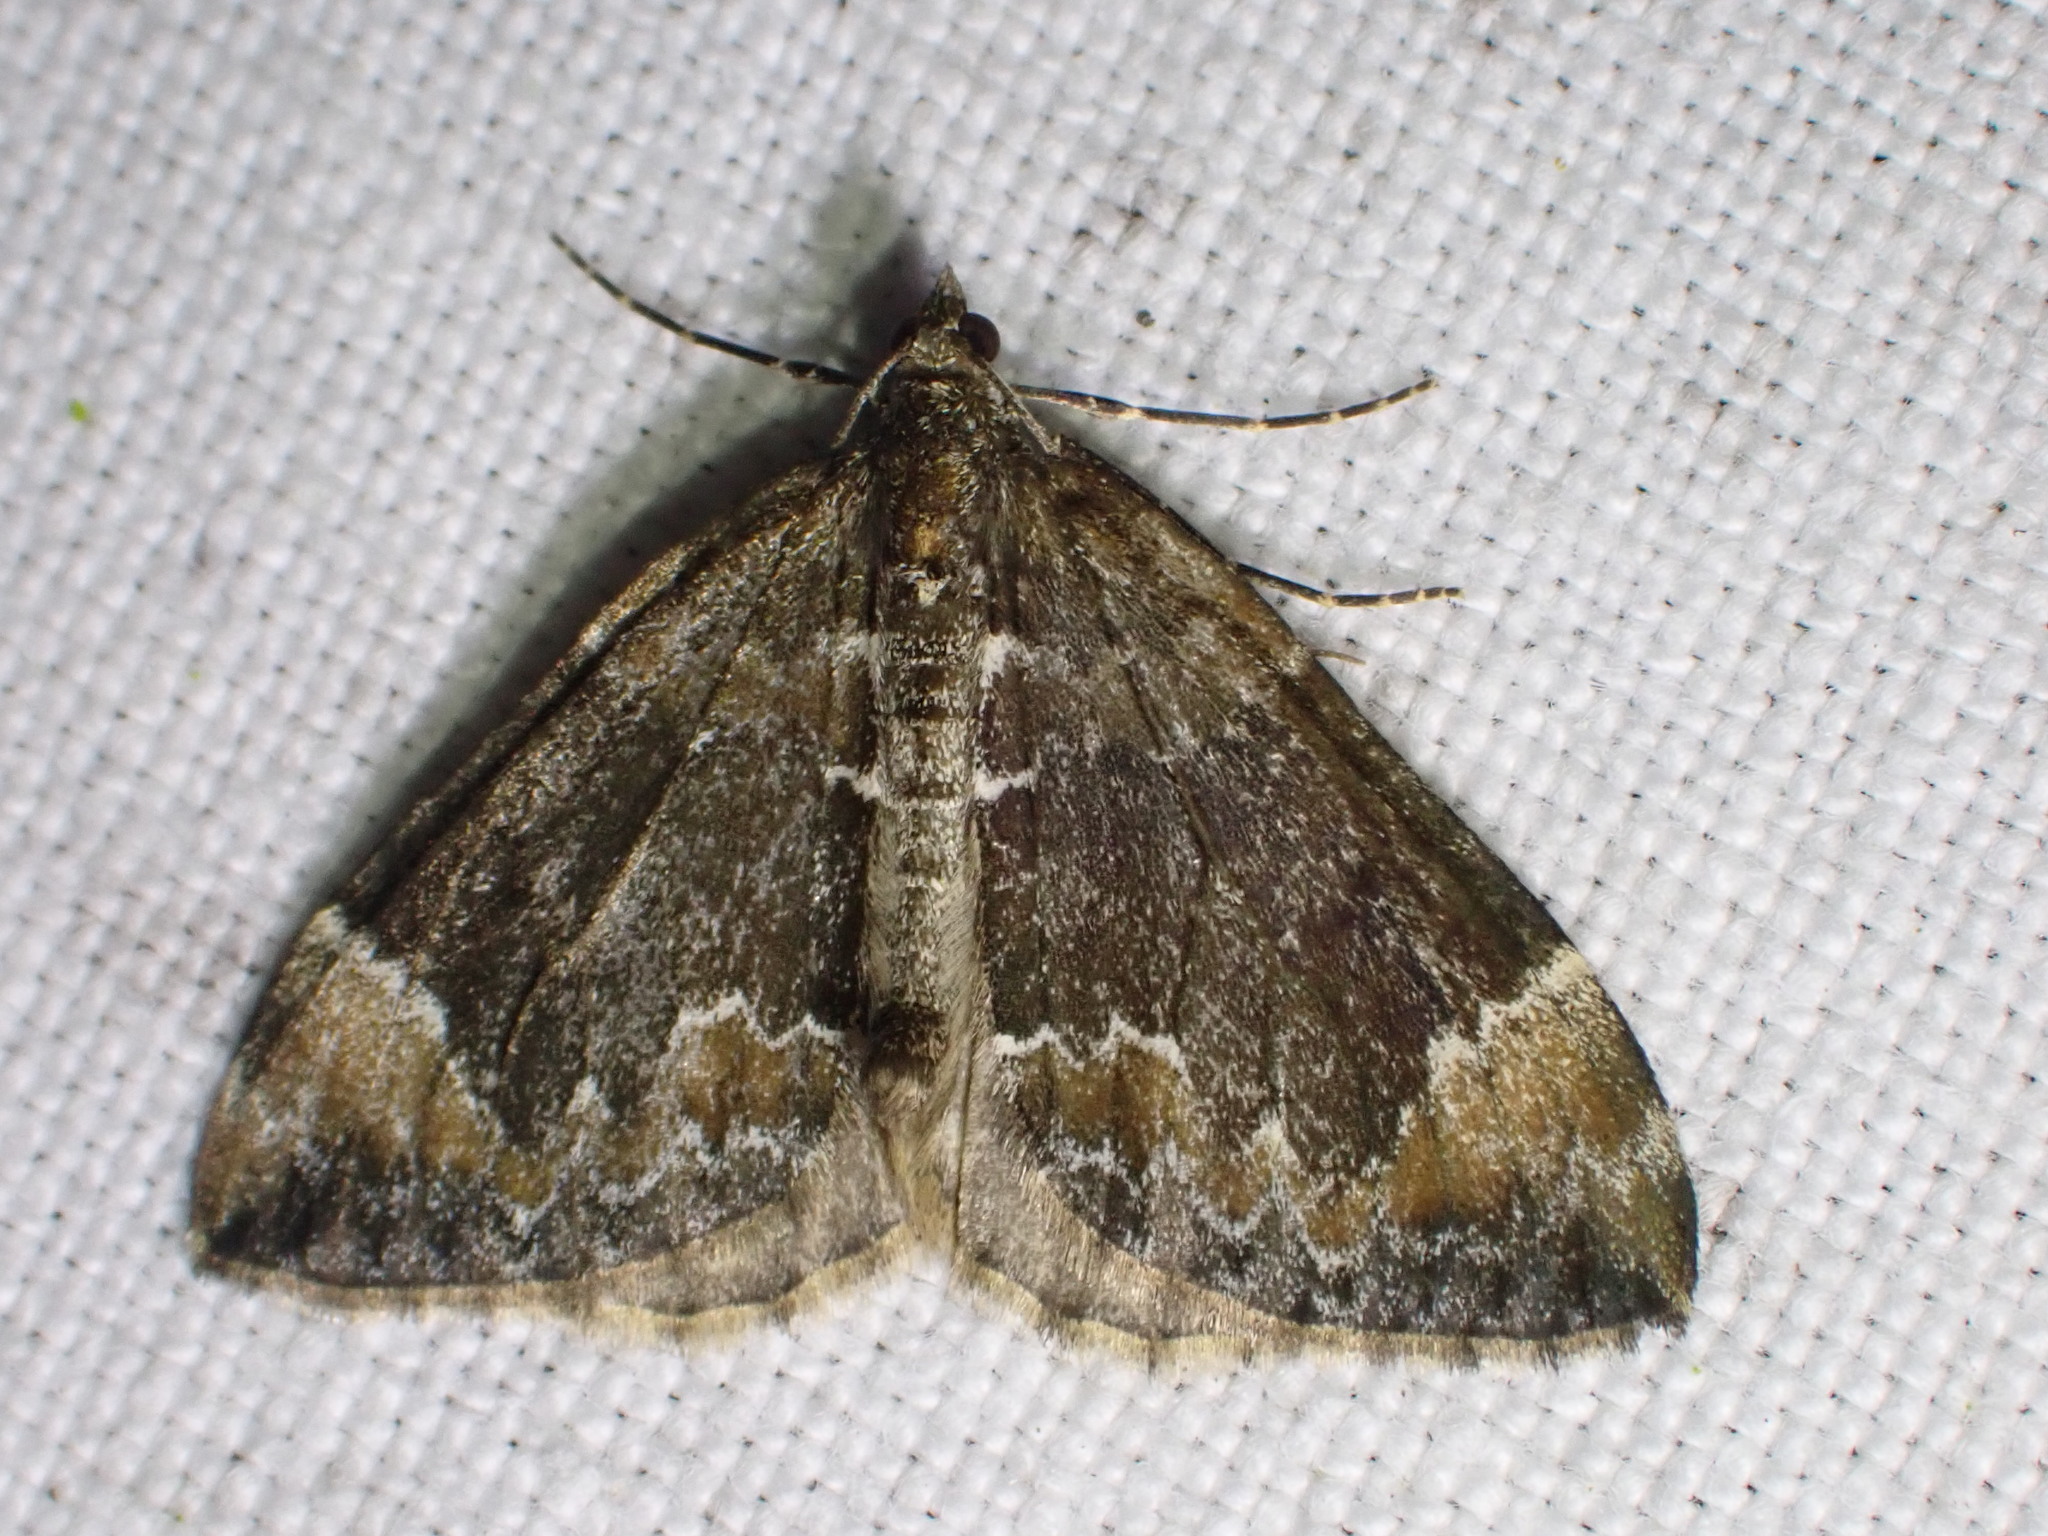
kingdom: Animalia
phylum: Arthropoda
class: Insecta
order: Lepidoptera
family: Geometridae
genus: Dysstroma
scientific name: Dysstroma truncata
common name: Common marbled carpet
